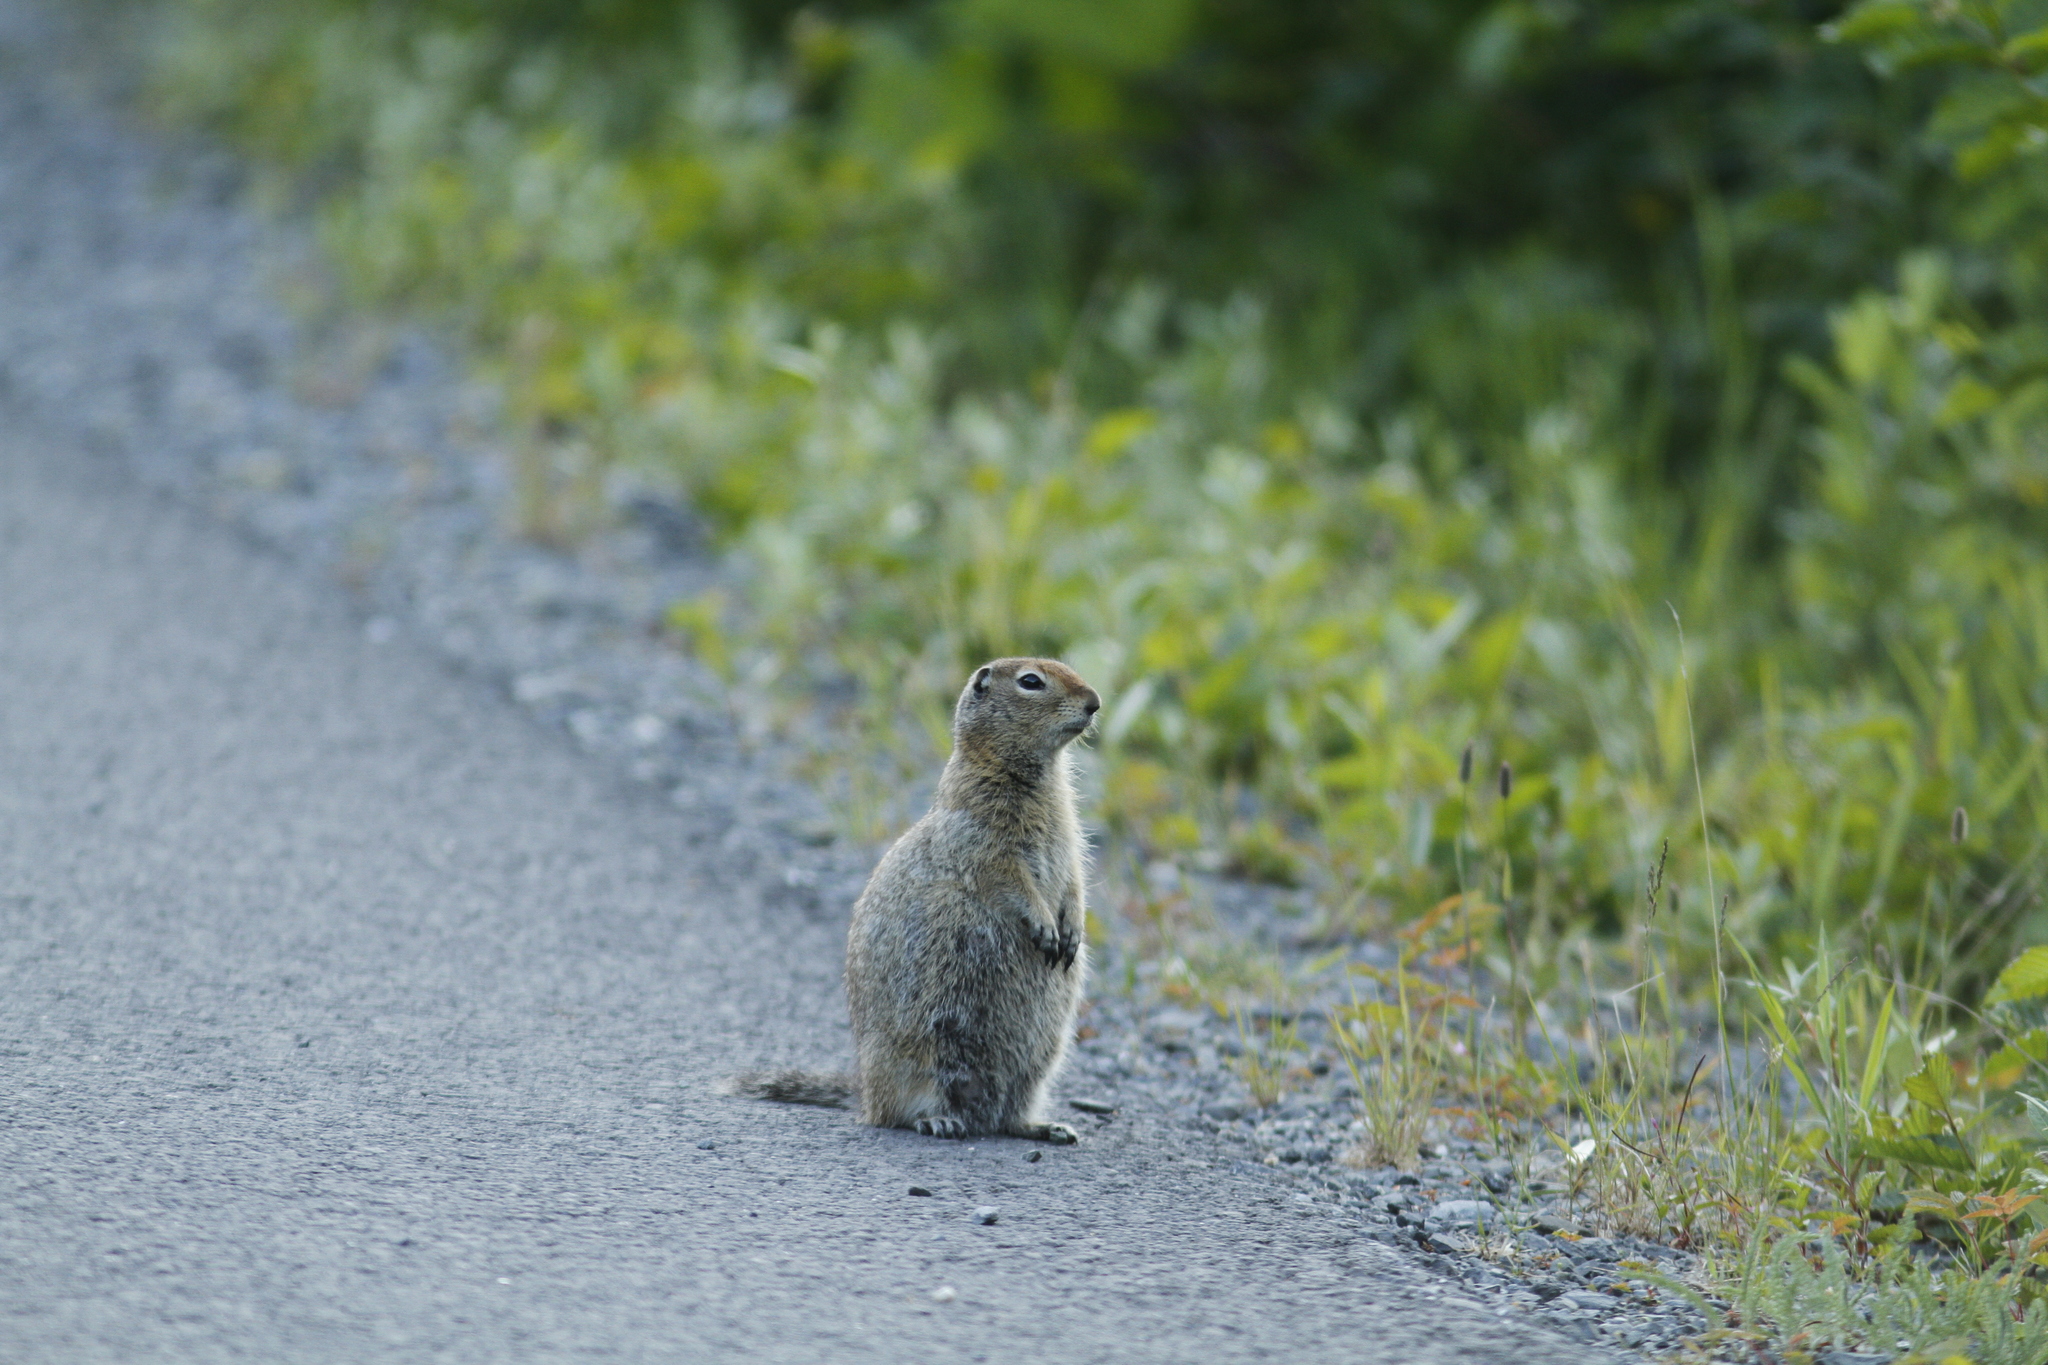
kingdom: Animalia
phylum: Chordata
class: Mammalia
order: Rodentia
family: Sciuridae
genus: Urocitellus
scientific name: Urocitellus parryii
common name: Arctic ground squirrel
